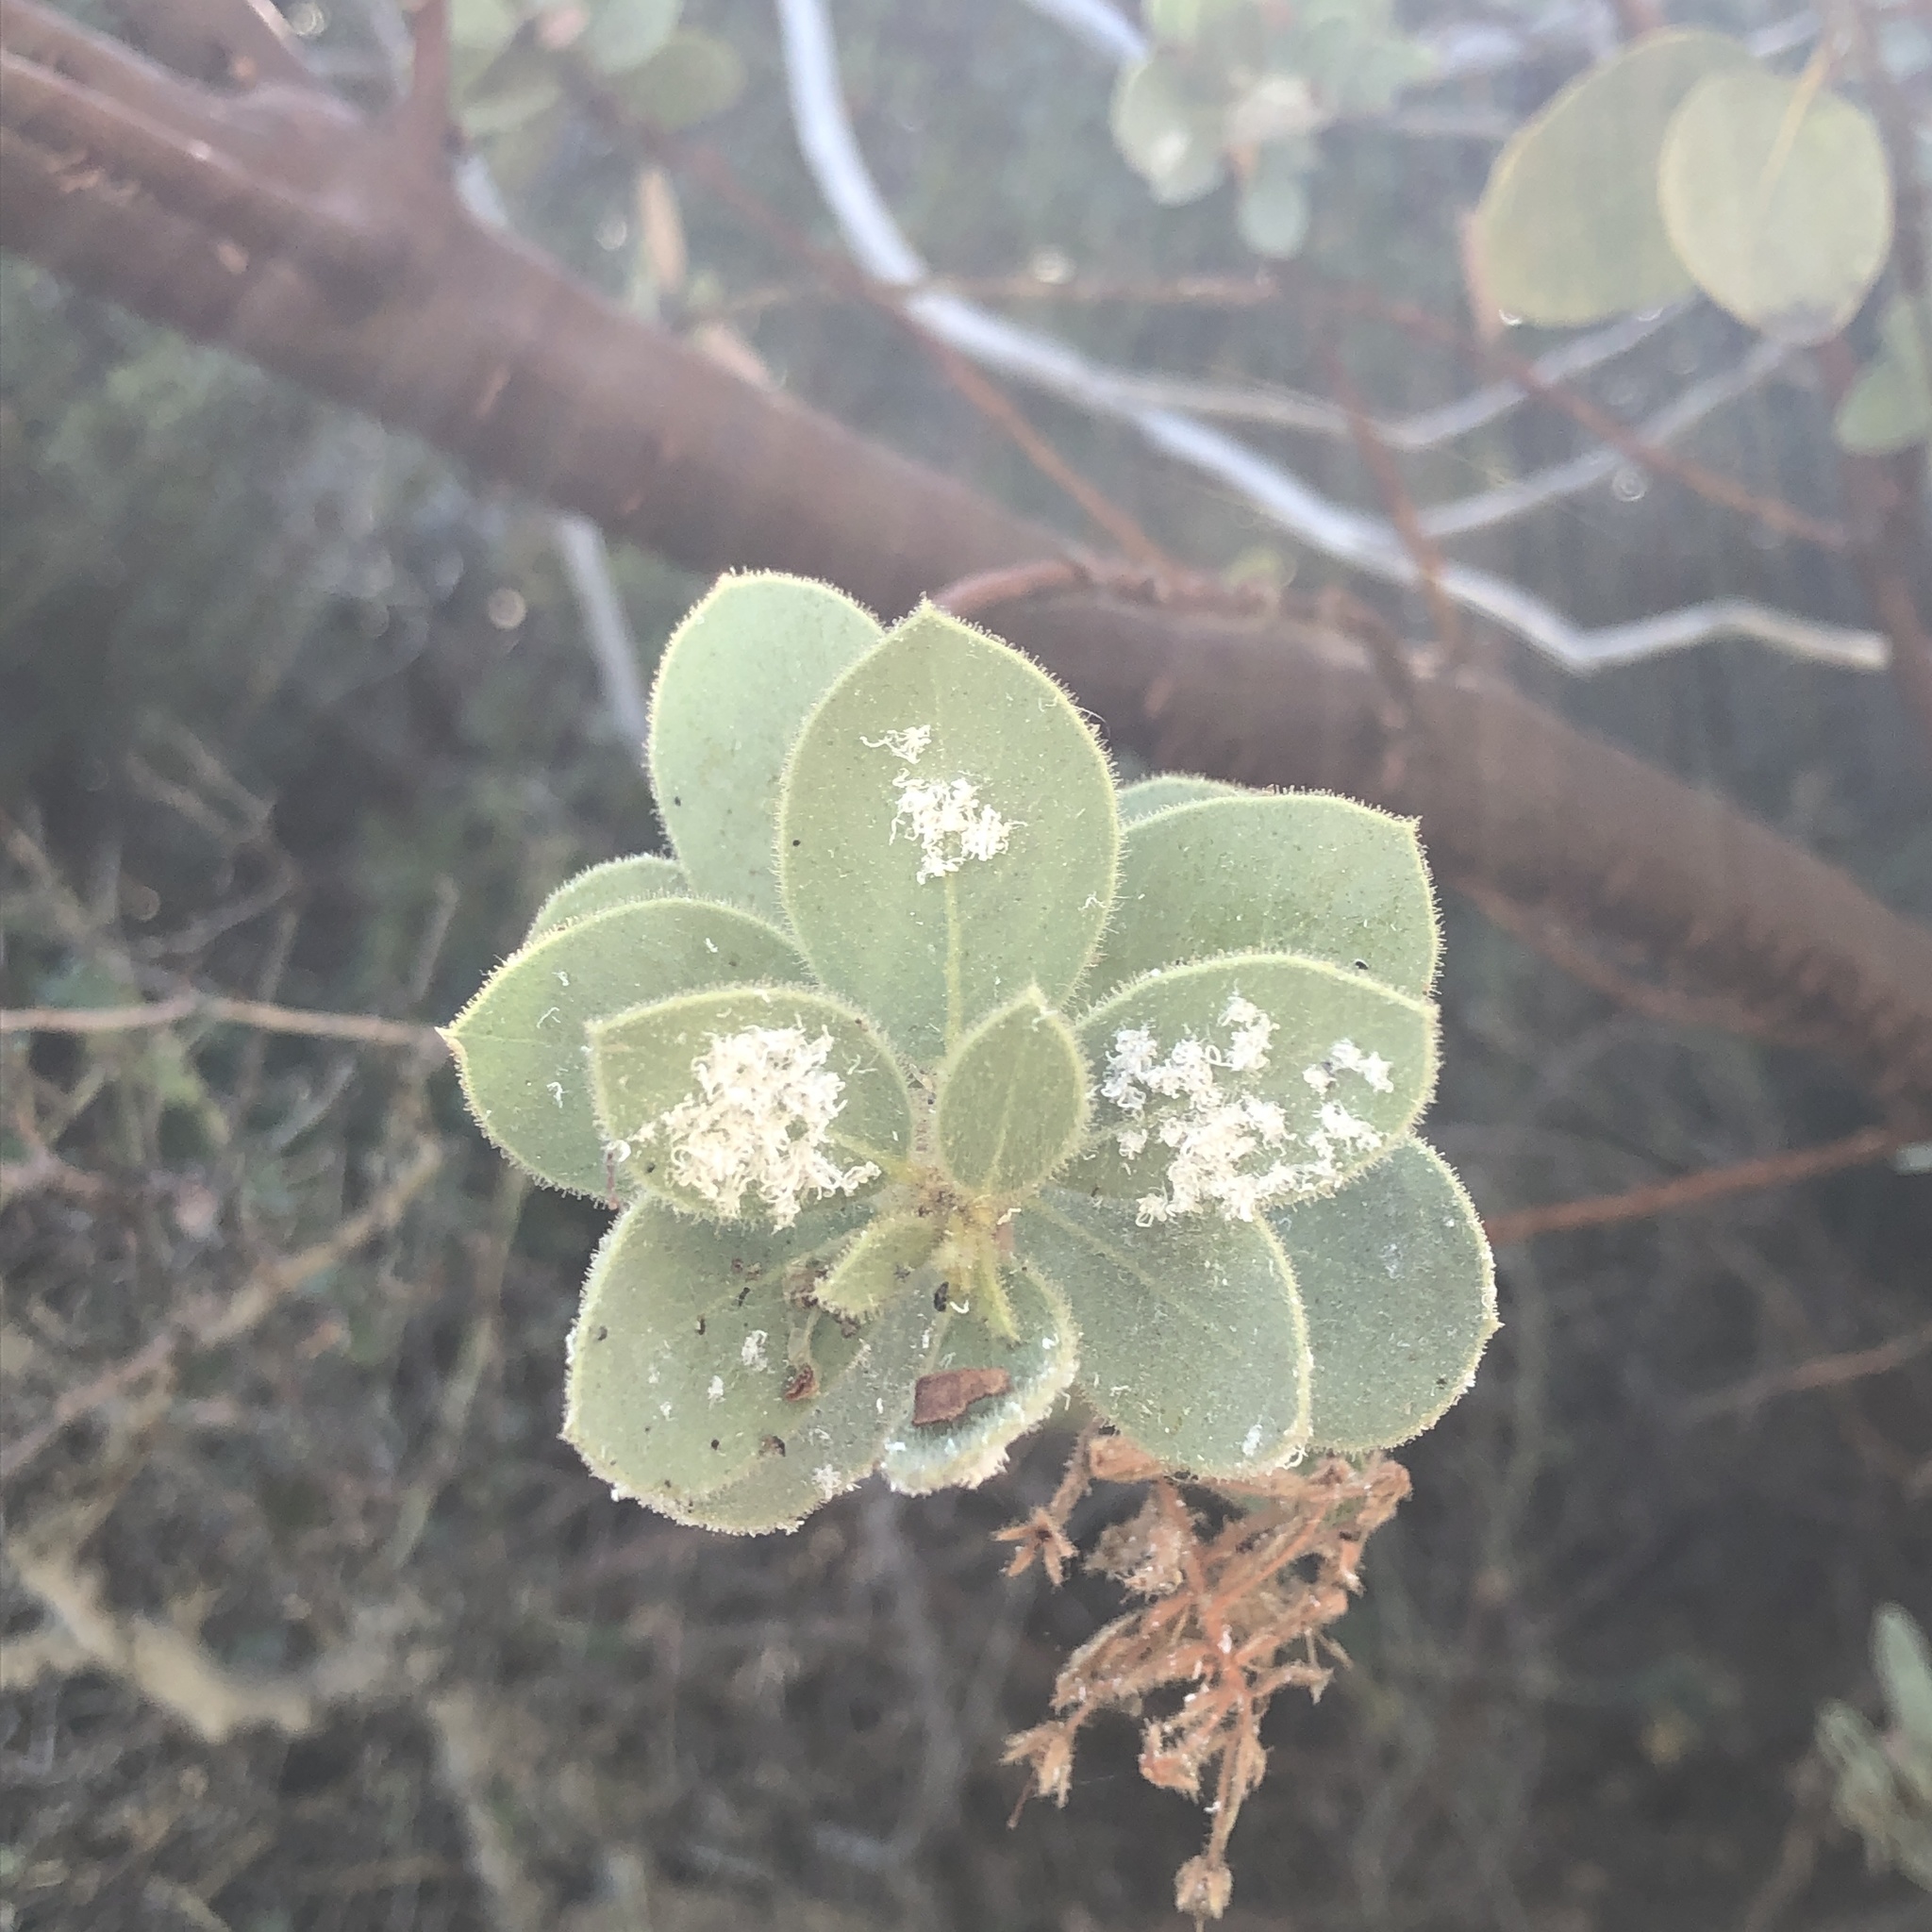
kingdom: Plantae
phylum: Tracheophyta
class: Magnoliopsida
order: Ericales
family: Ericaceae
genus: Arctostaphylos
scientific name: Arctostaphylos pringlei
